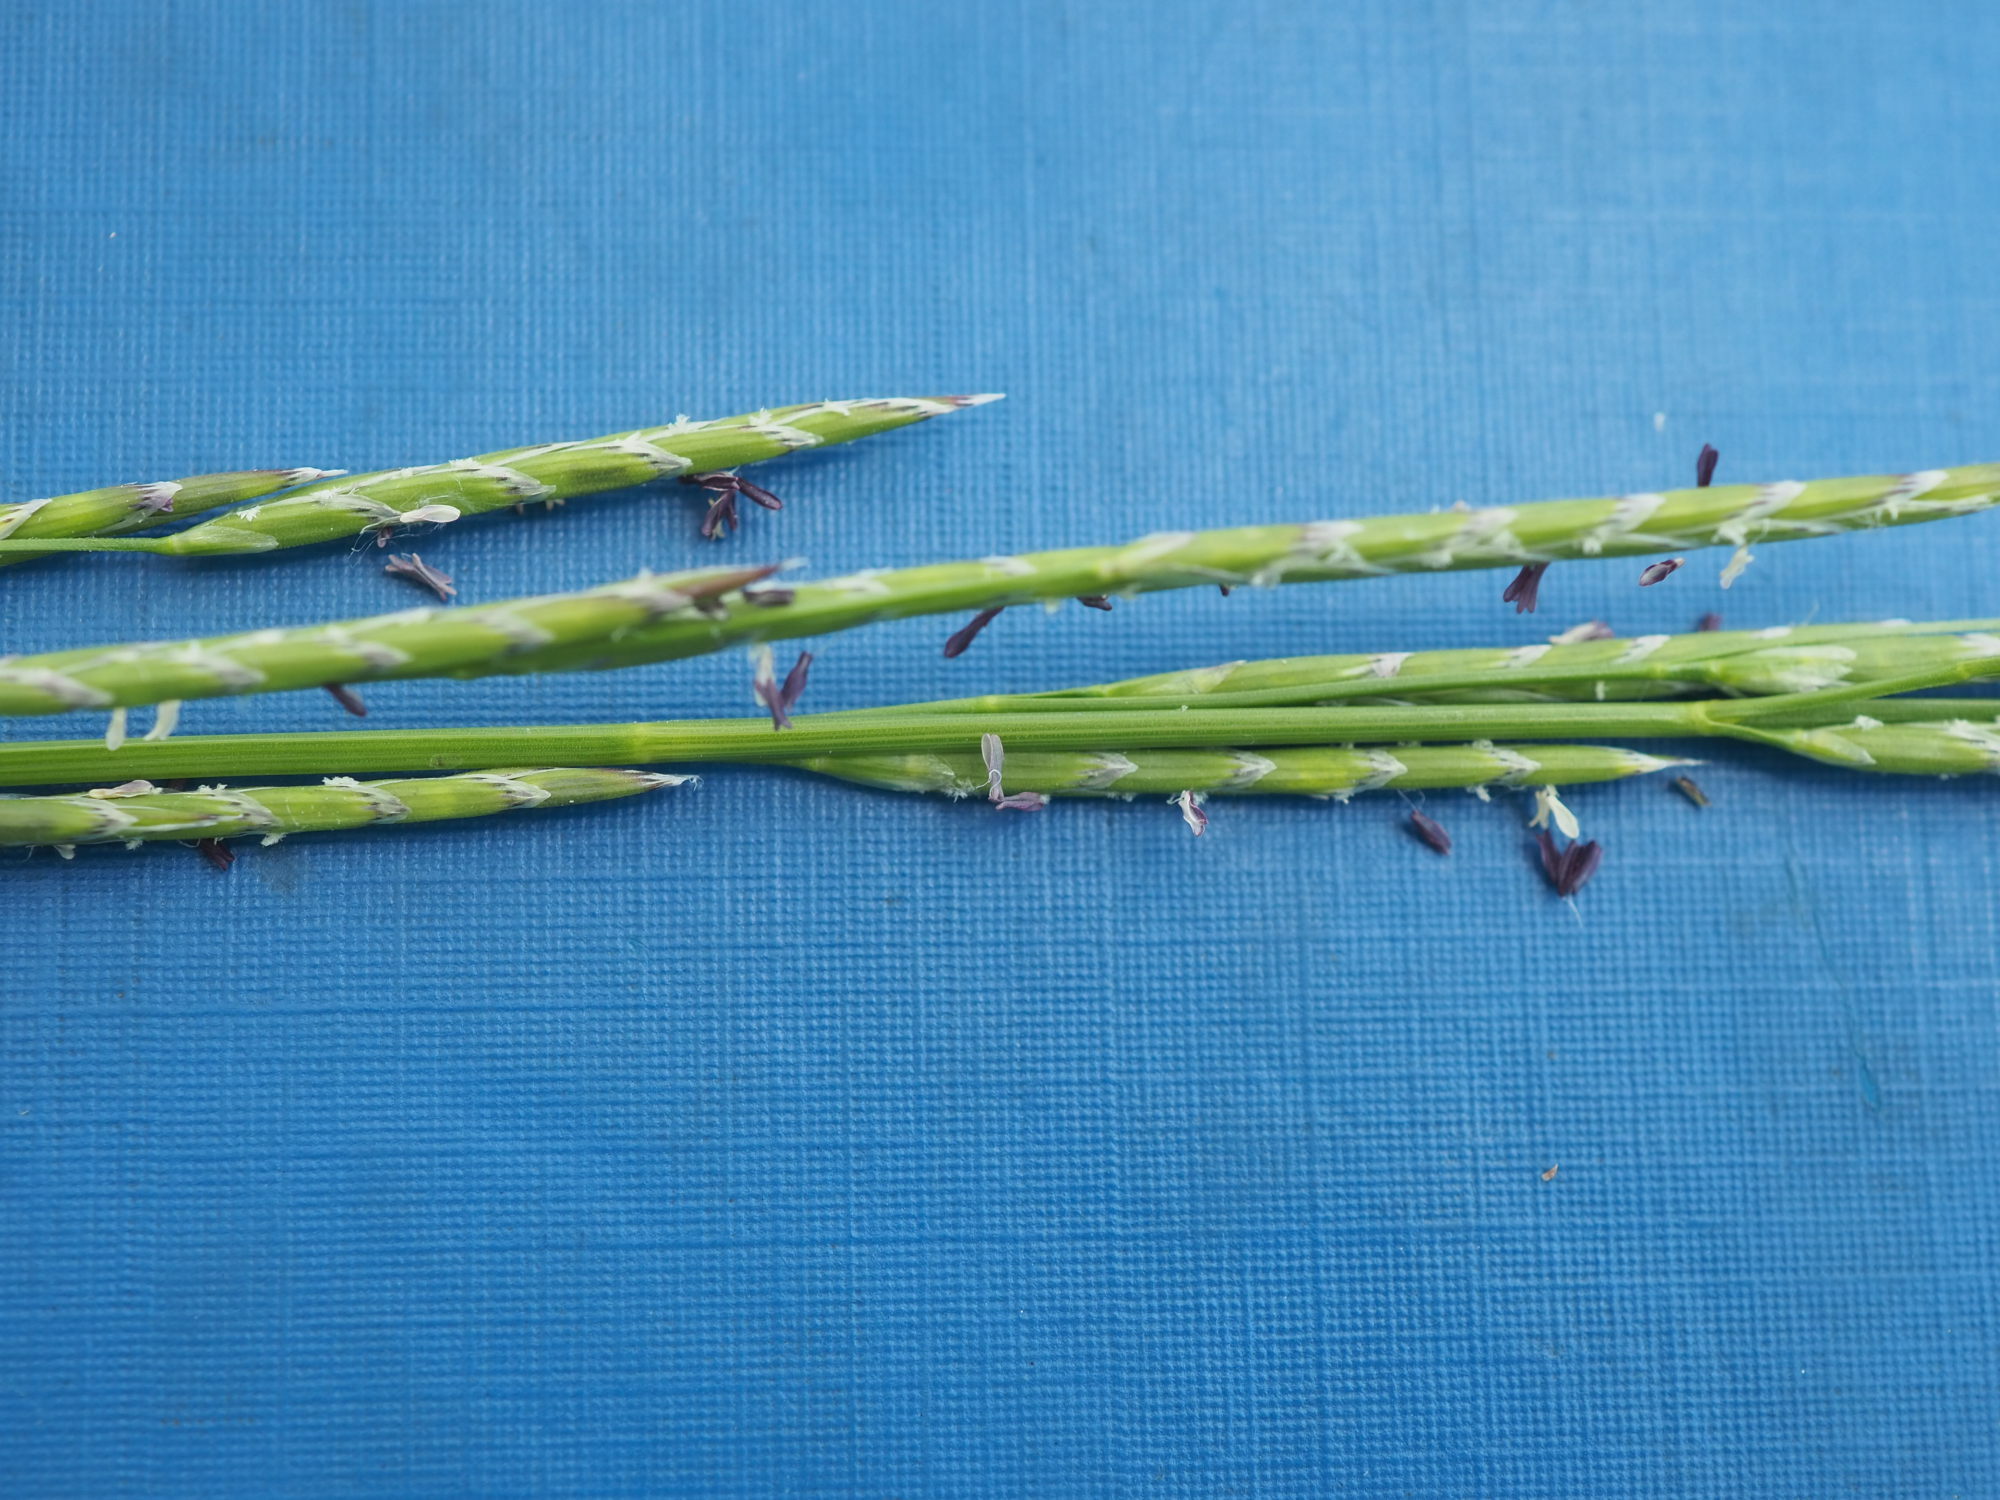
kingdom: Plantae
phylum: Tracheophyta
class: Liliopsida
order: Poales
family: Poaceae
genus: Glyceria
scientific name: Glyceria fluitans
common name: Floating sweet-grass
